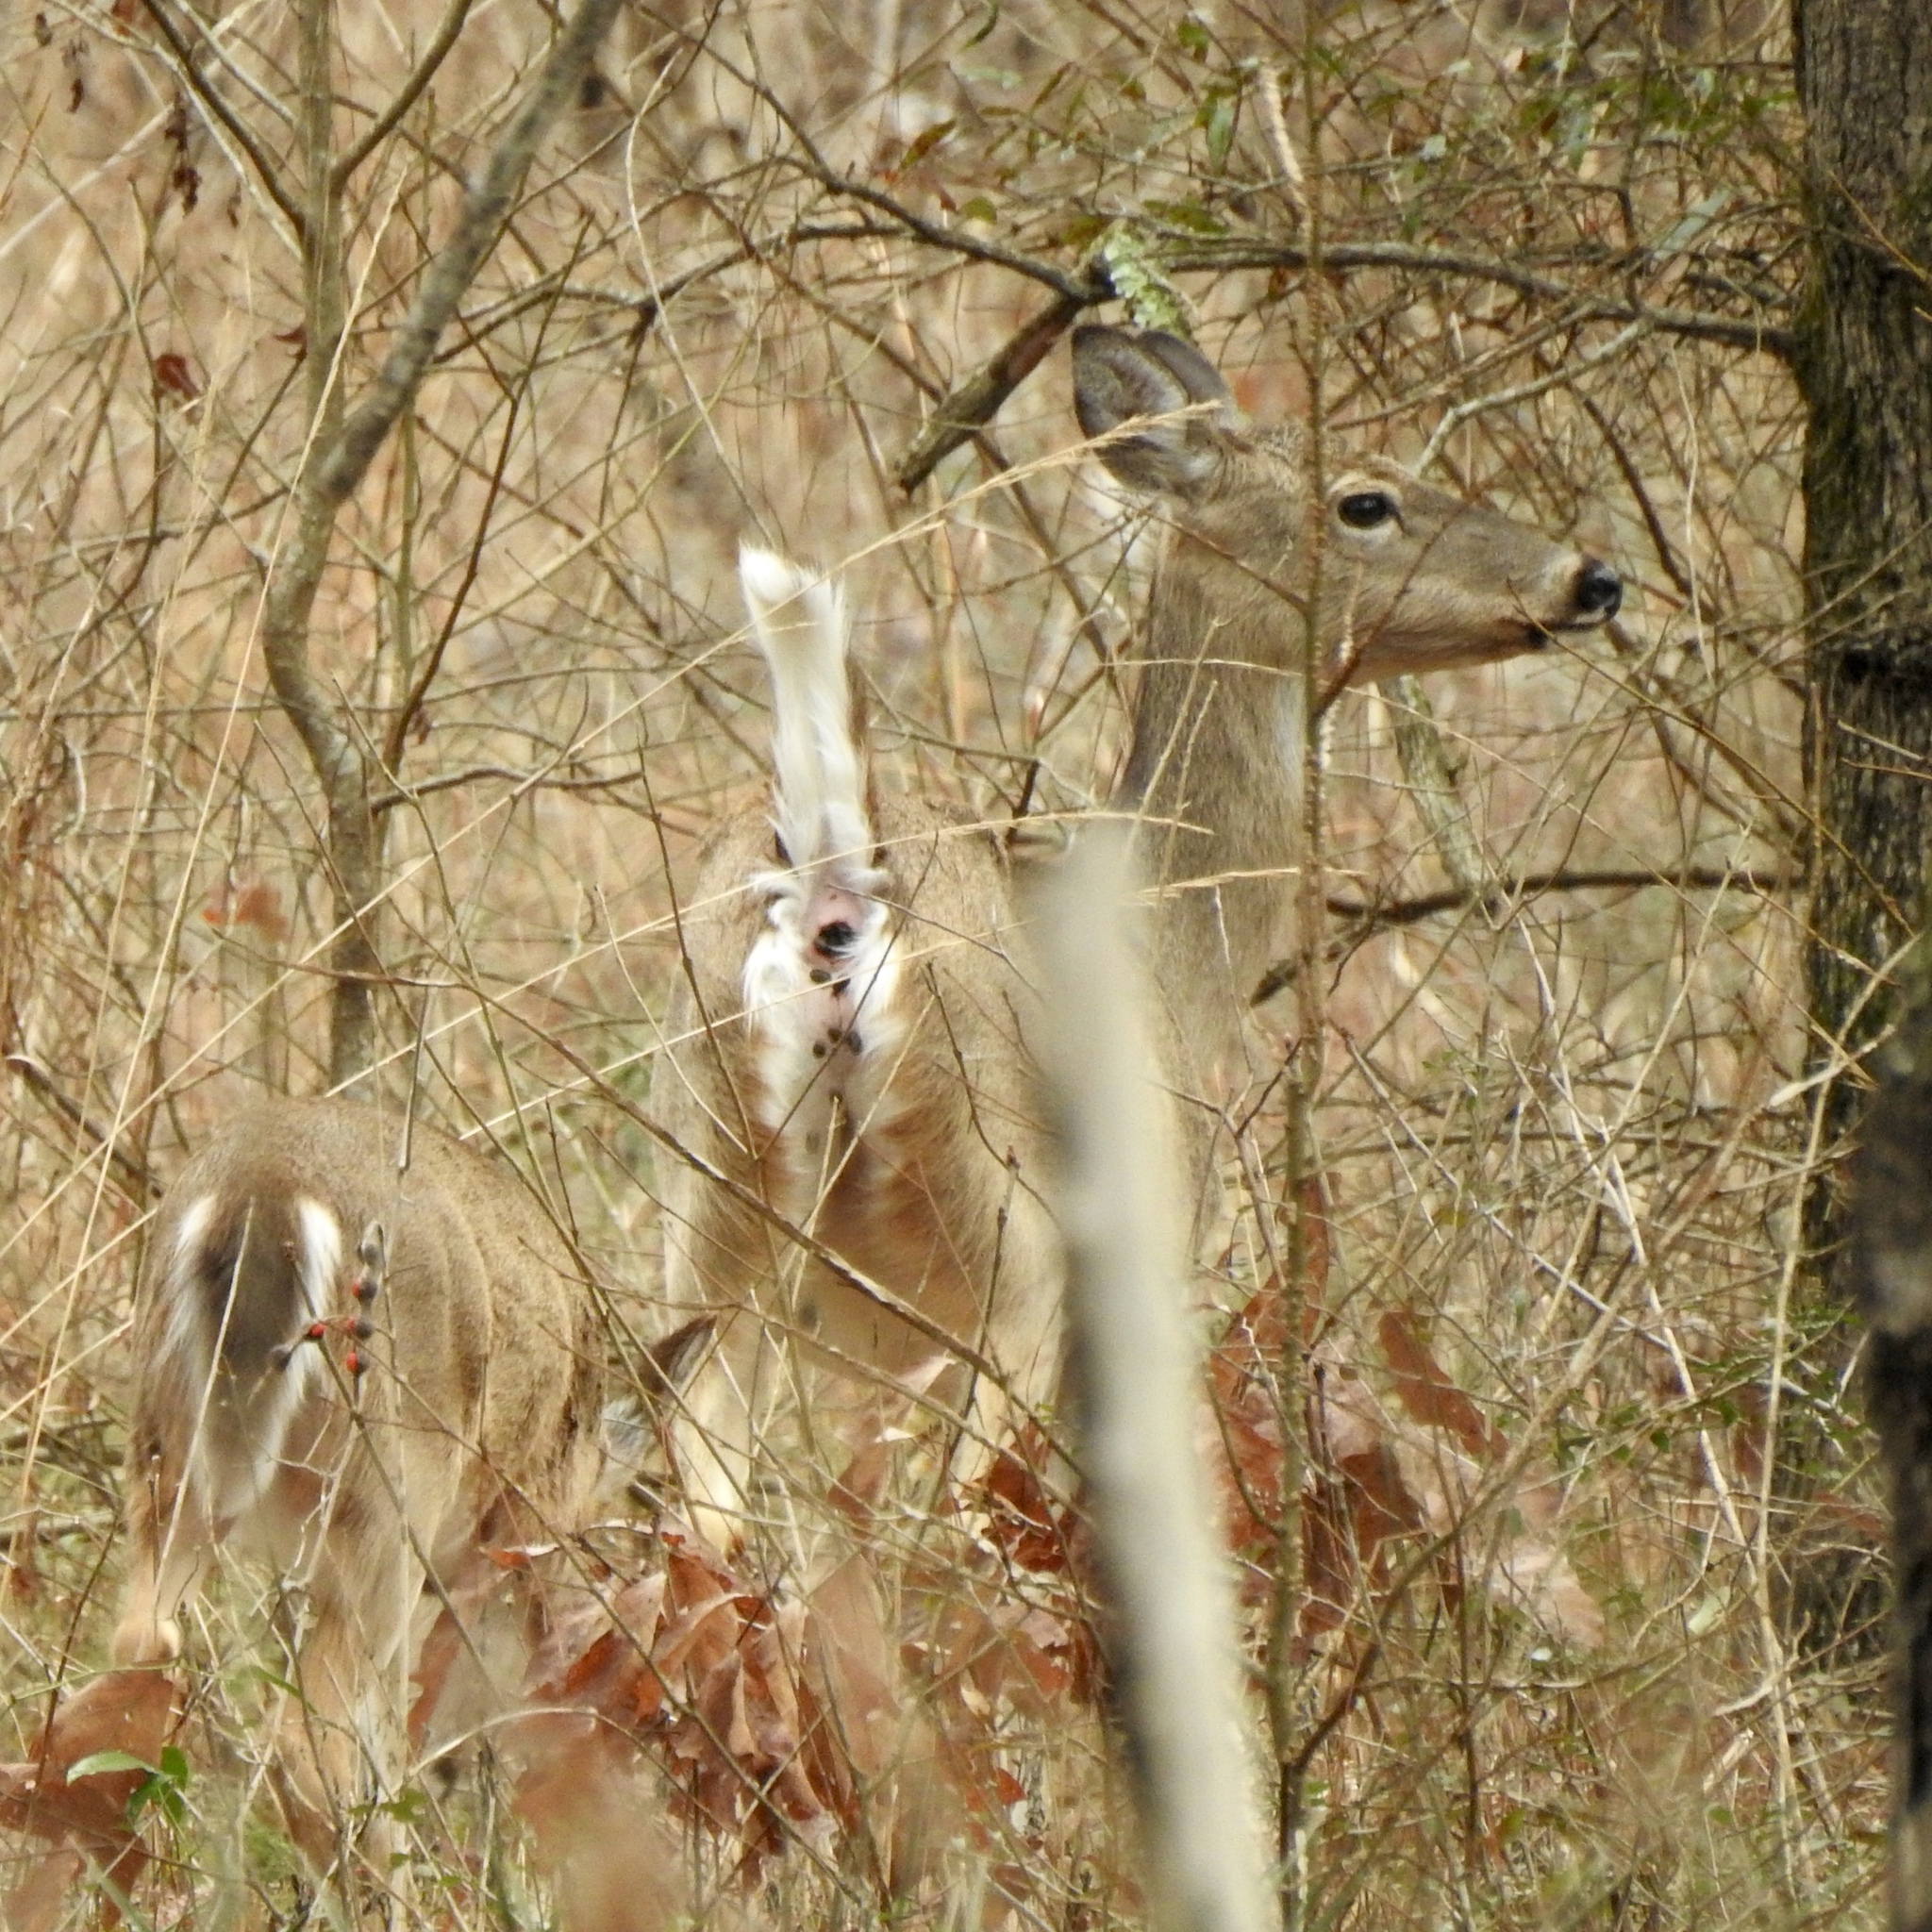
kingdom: Animalia
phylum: Chordata
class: Mammalia
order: Artiodactyla
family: Cervidae
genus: Odocoileus
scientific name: Odocoileus virginianus
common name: White-tailed deer
